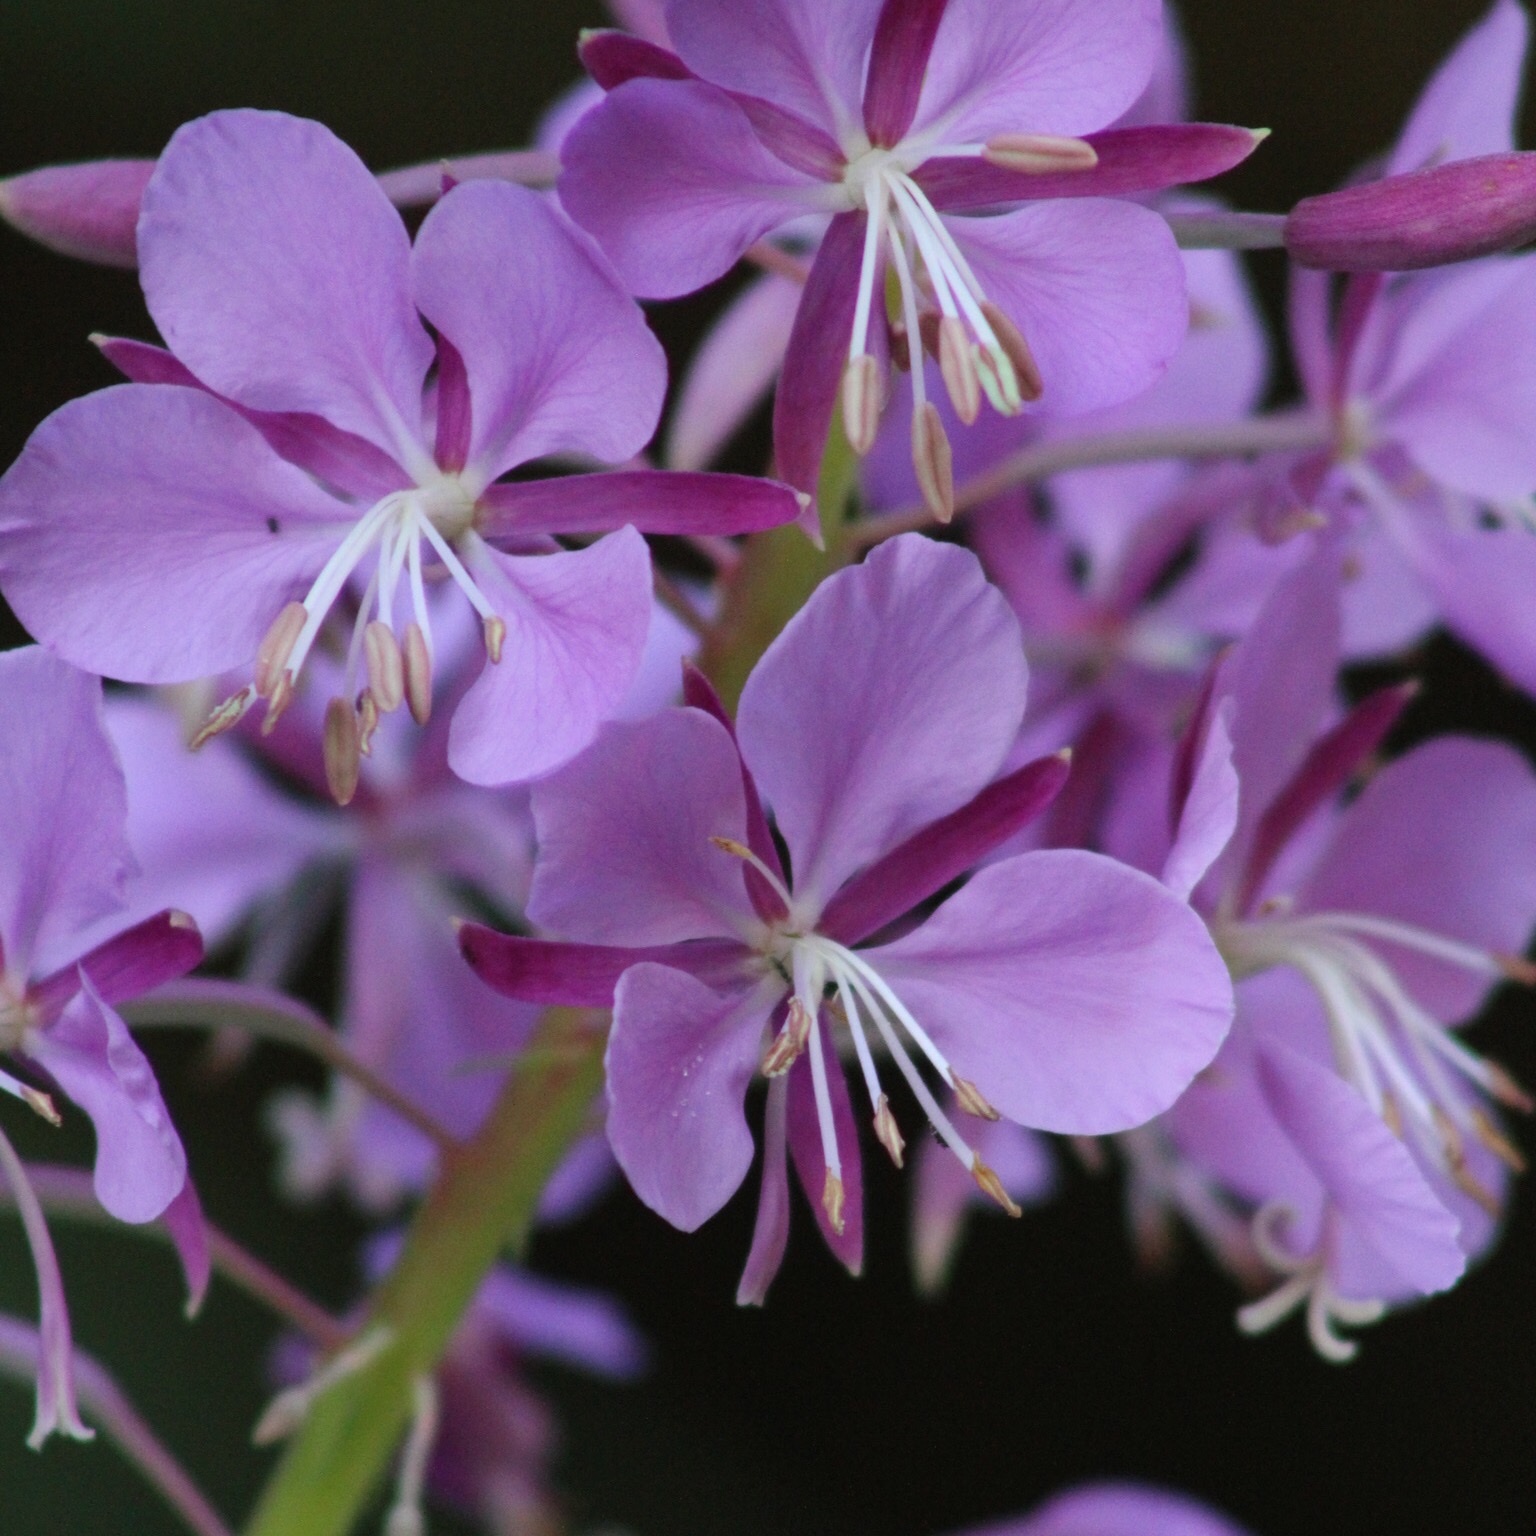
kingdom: Plantae
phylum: Tracheophyta
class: Magnoliopsida
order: Myrtales
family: Onagraceae
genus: Chamaenerion
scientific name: Chamaenerion angustifolium
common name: Fireweed
